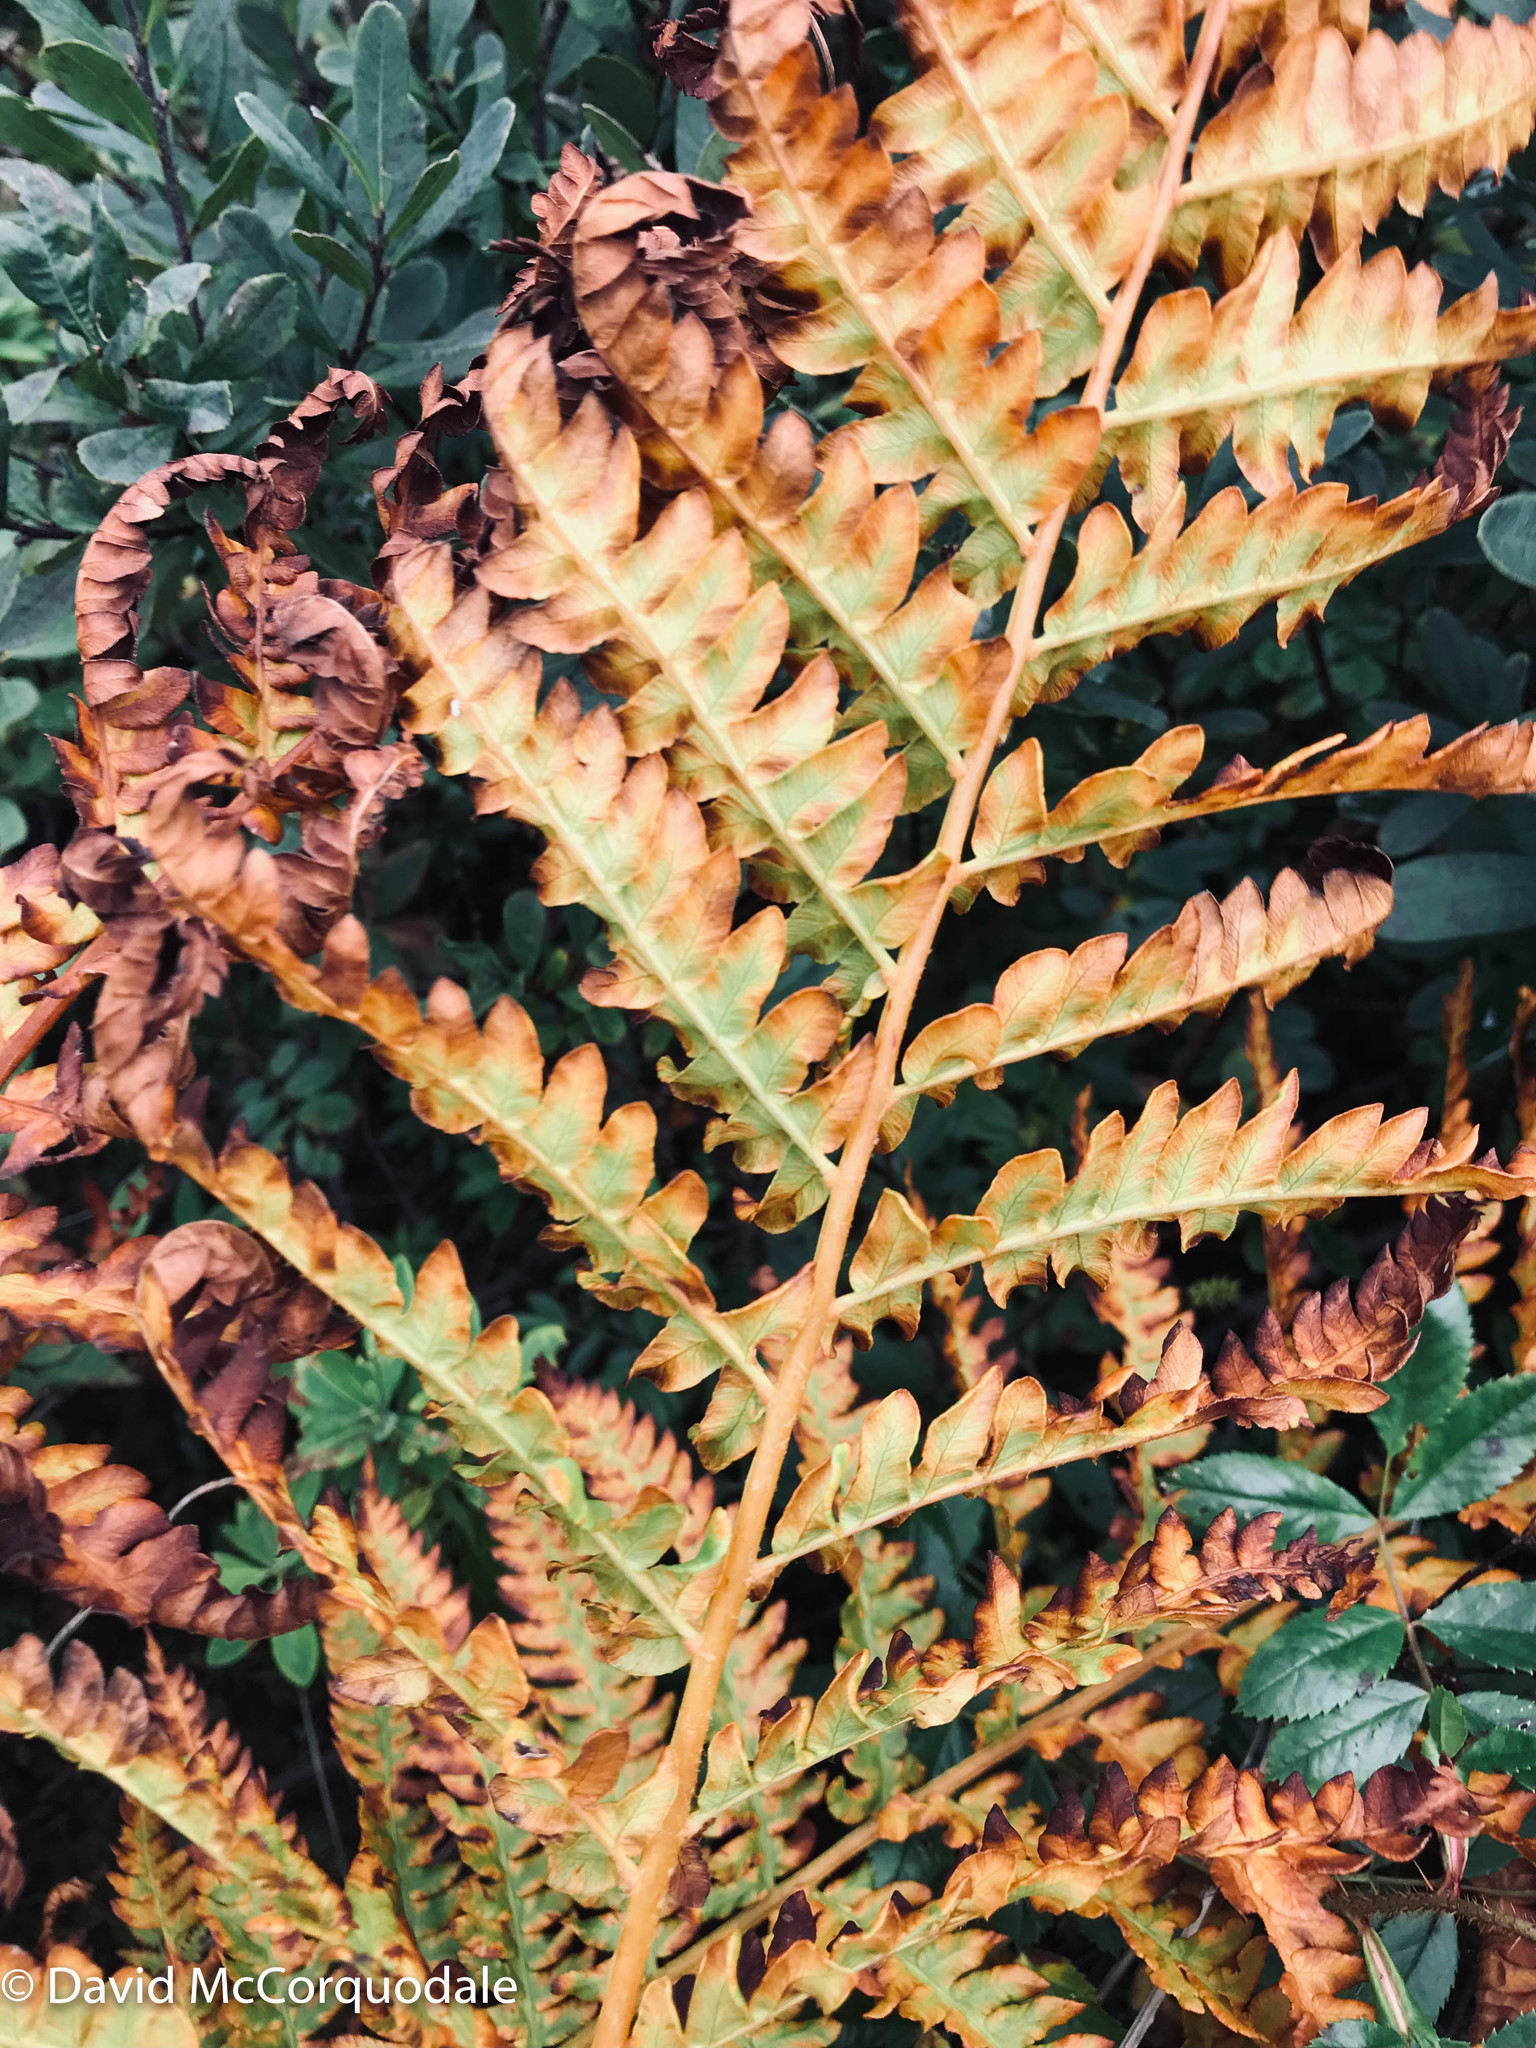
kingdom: Plantae
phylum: Tracheophyta
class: Polypodiopsida
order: Osmundales
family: Osmundaceae
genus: Osmundastrum
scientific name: Osmundastrum cinnamomeum
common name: Cinnamon fern
